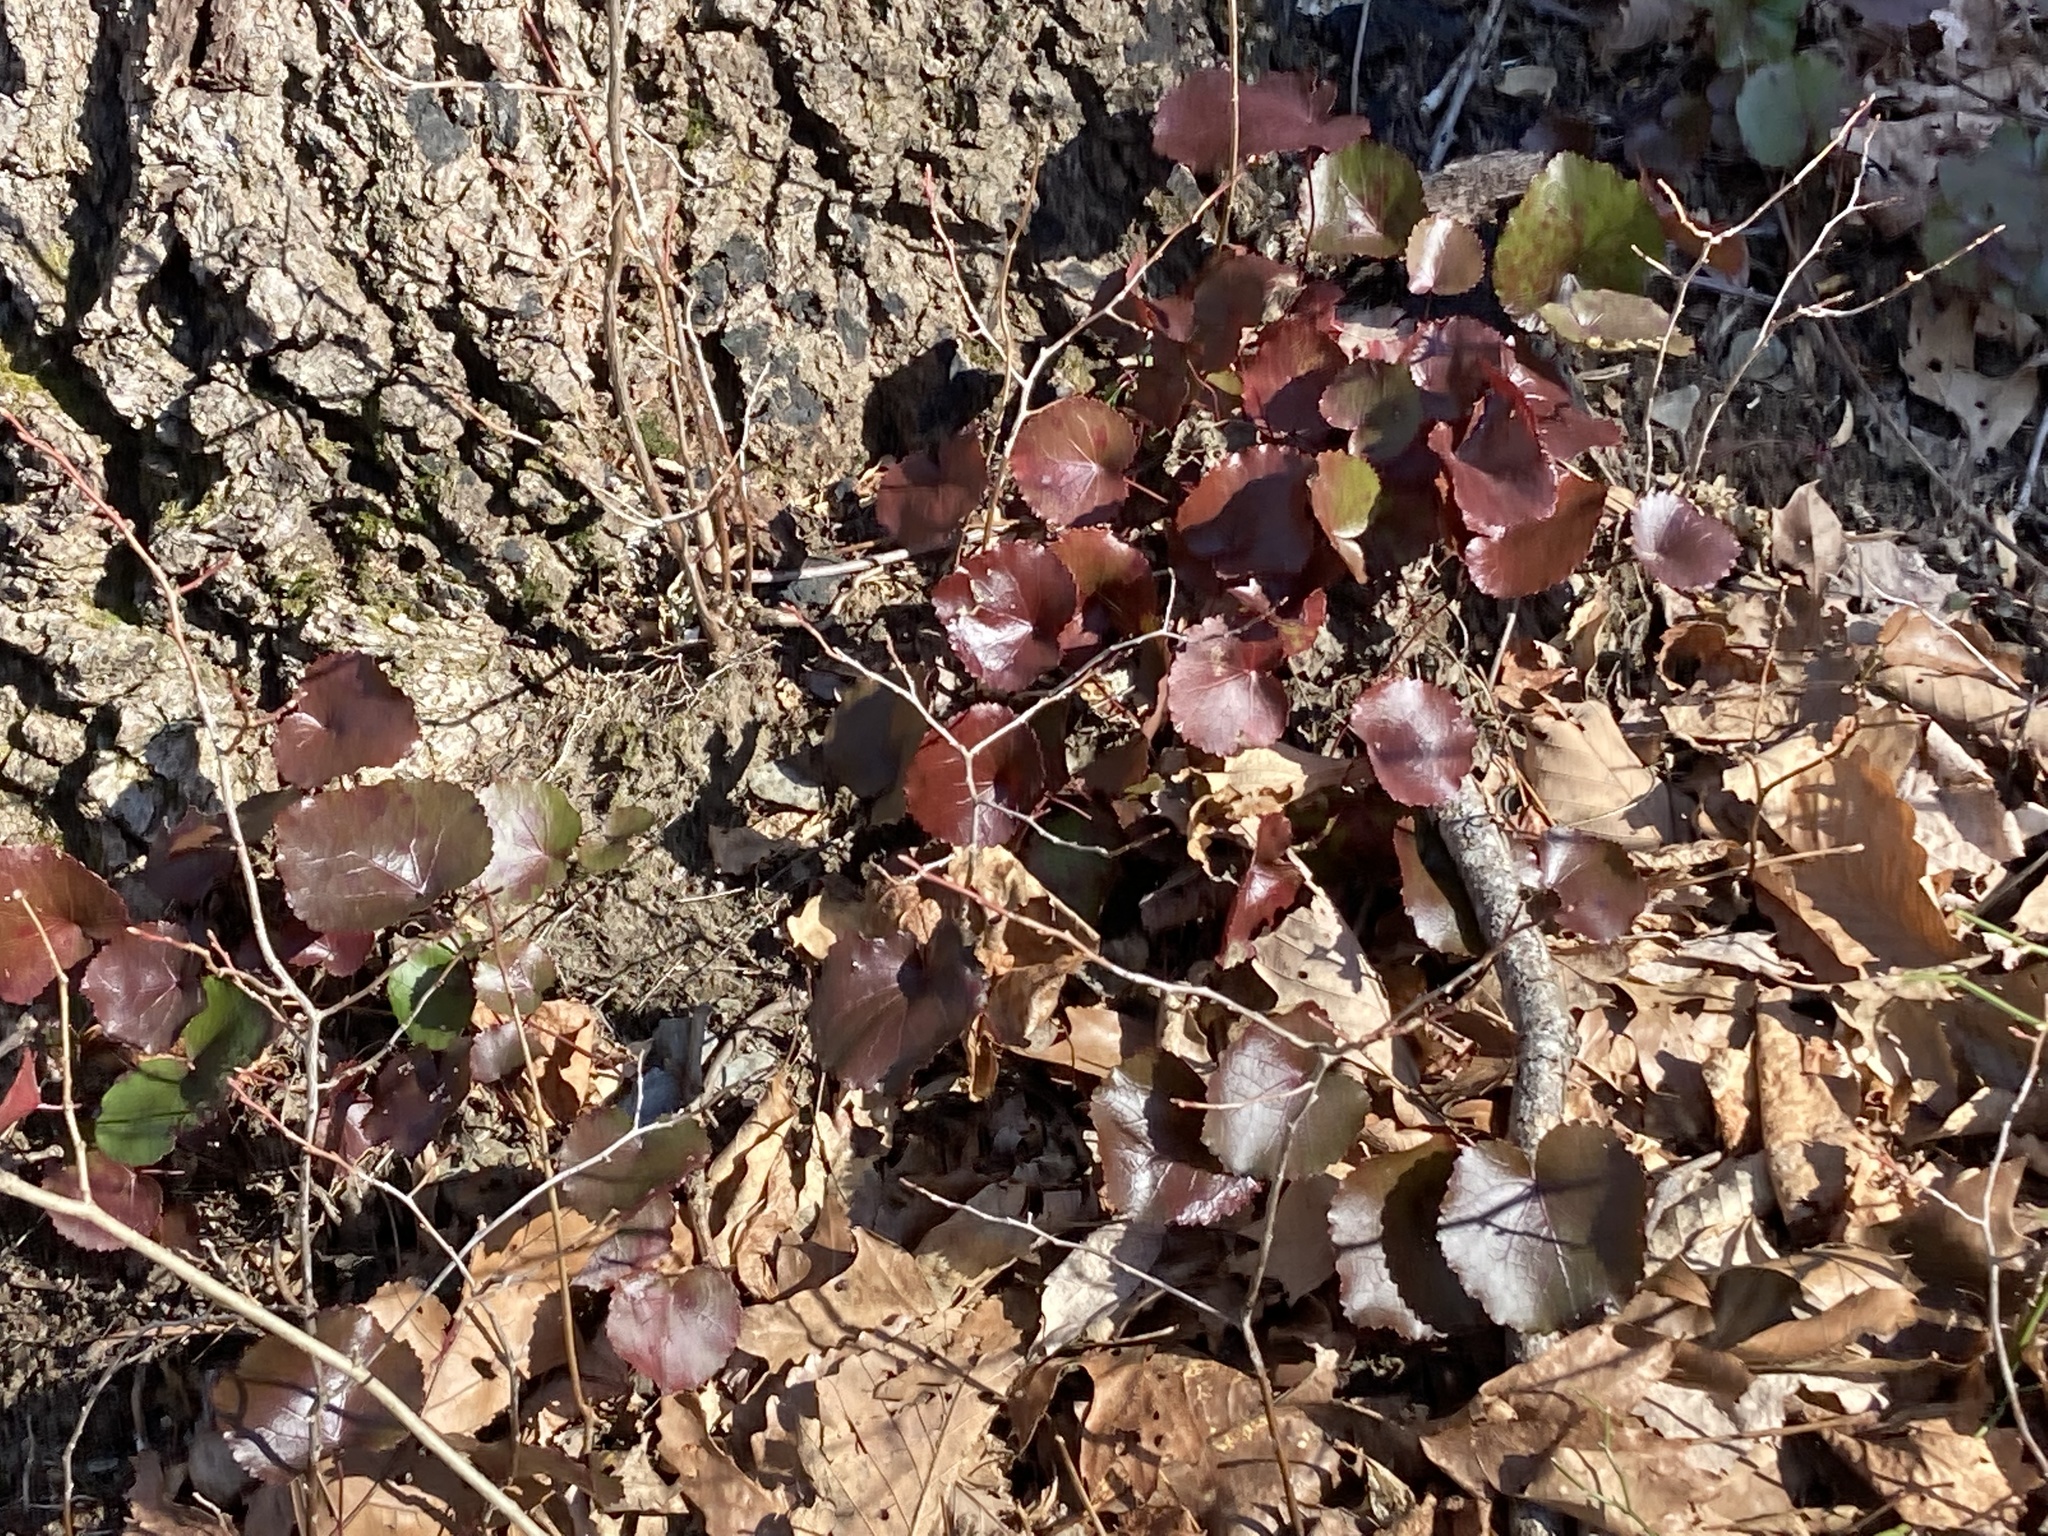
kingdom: Plantae
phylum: Tracheophyta
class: Magnoliopsida
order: Ericales
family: Diapensiaceae
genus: Galax
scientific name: Galax urceolata
